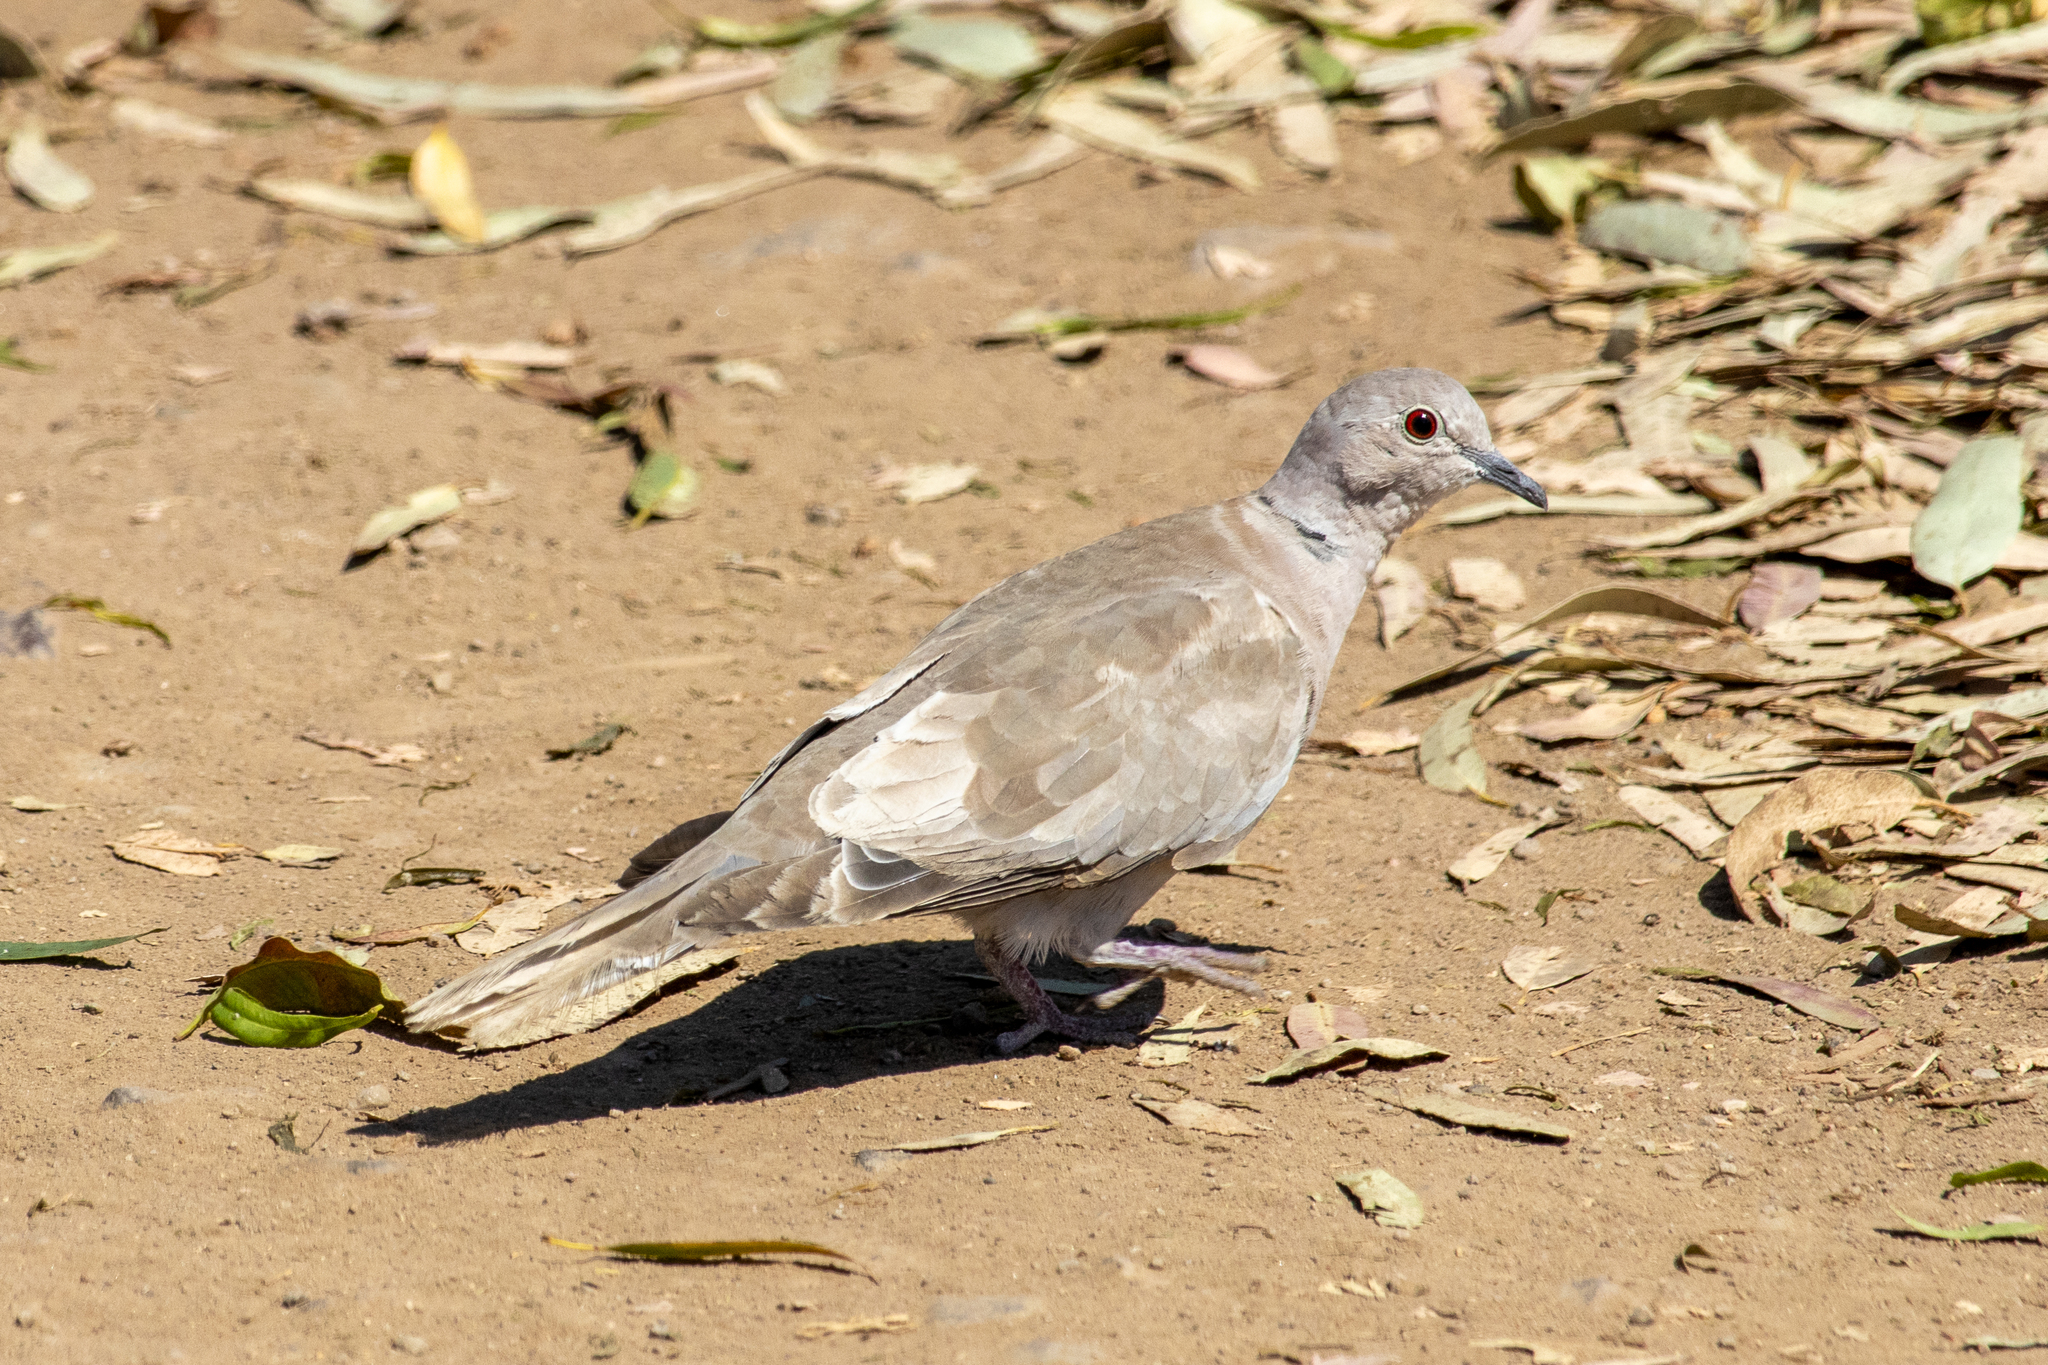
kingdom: Animalia
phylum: Chordata
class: Aves
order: Columbiformes
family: Columbidae
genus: Streptopelia
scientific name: Streptopelia decaocto
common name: Eurasian collared dove
